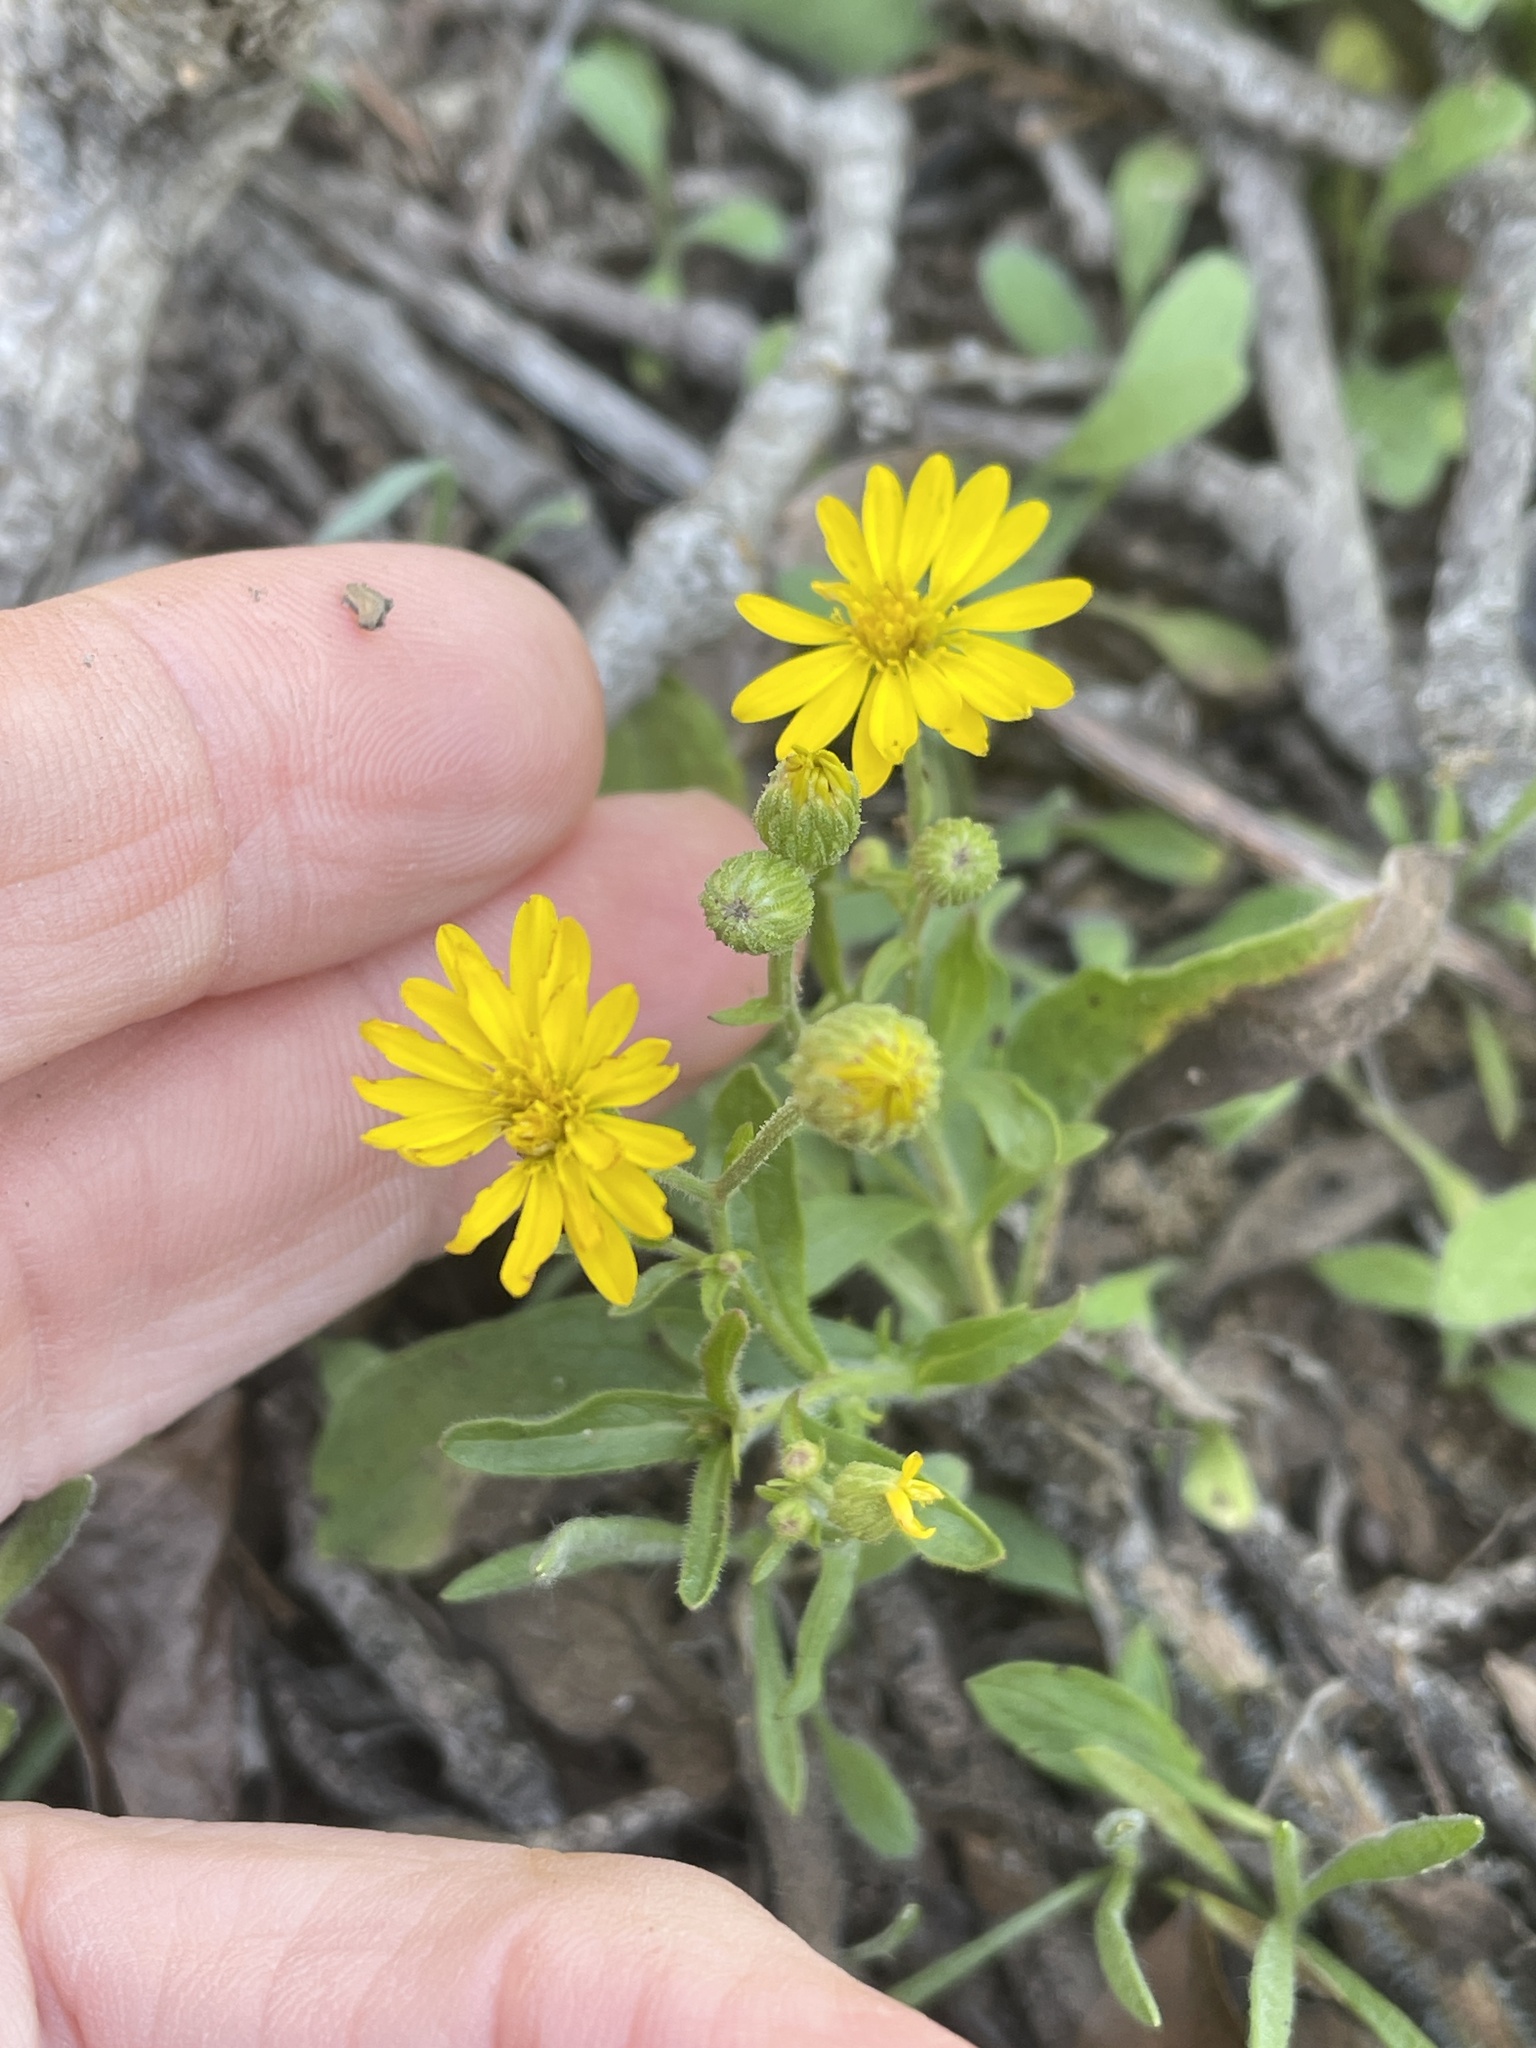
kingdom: Plantae
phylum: Tracheophyta
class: Magnoliopsida
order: Asterales
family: Asteraceae
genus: Heterotheca
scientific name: Heterotheca subaxillaris
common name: Camphorweed
